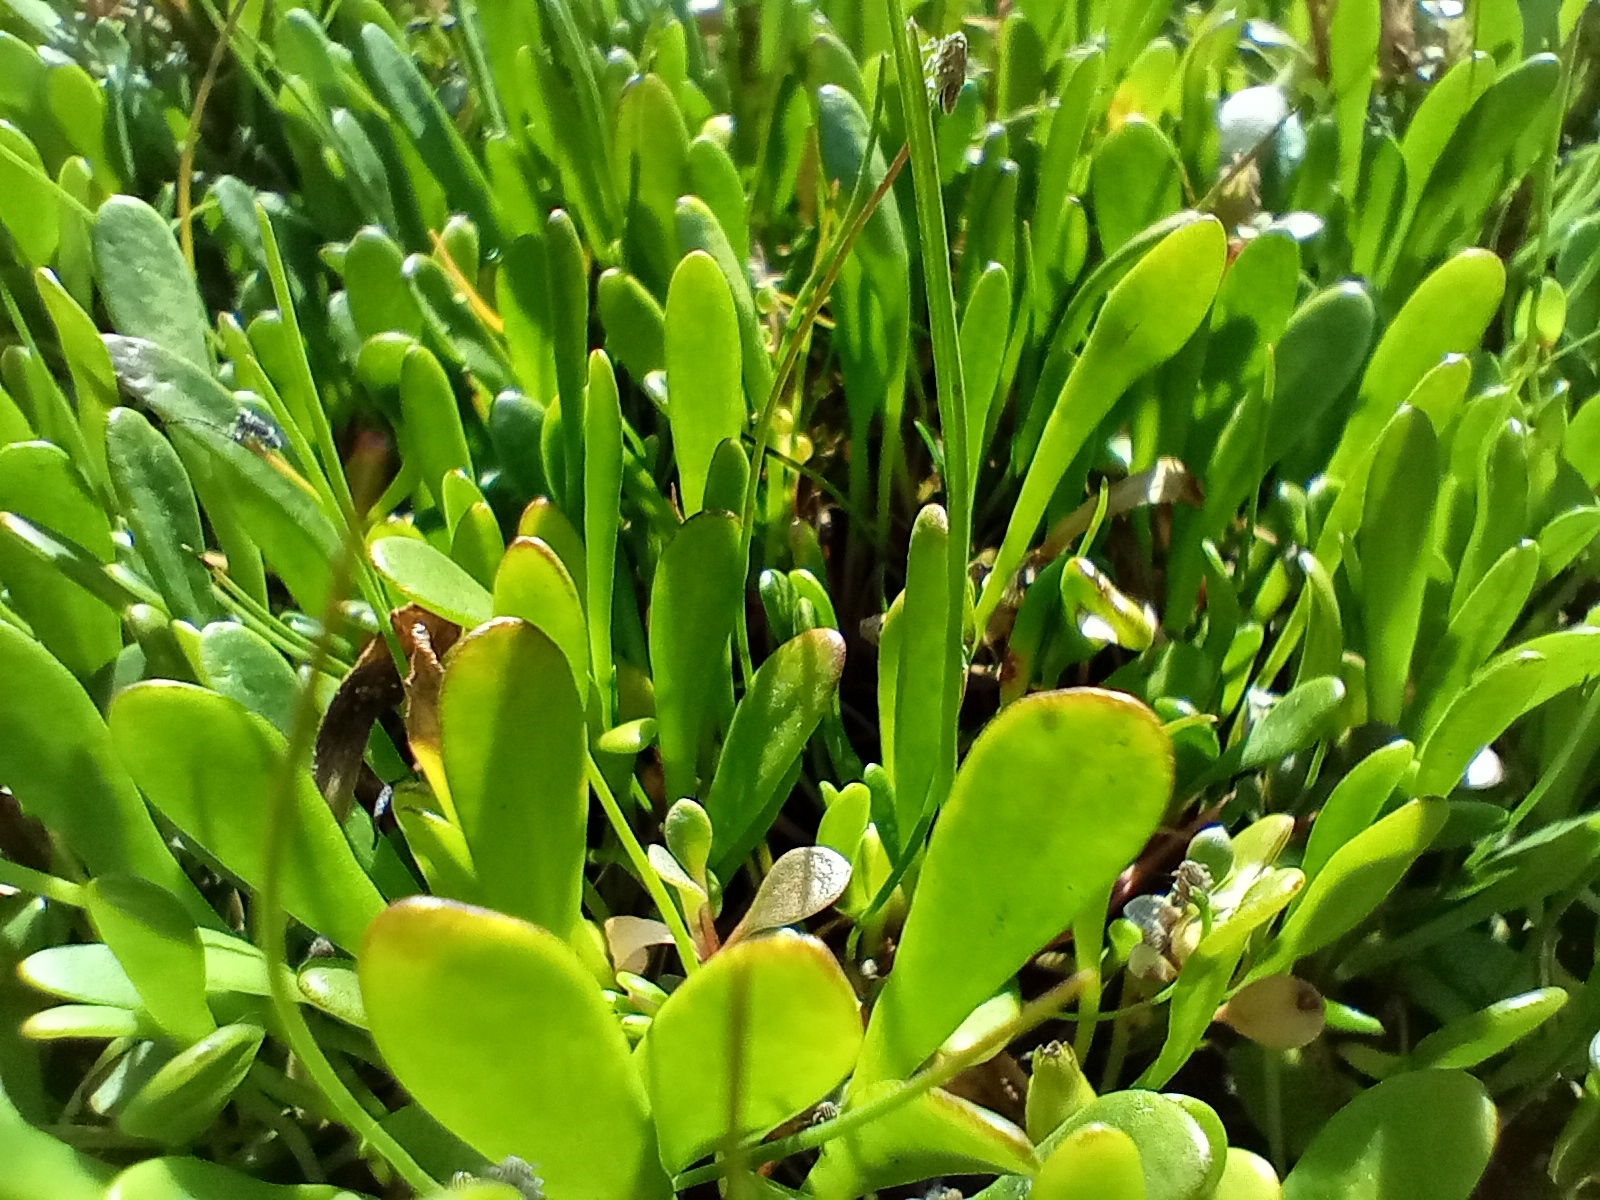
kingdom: Plantae
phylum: Tracheophyta
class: Magnoliopsida
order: Asterales
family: Goodeniaceae
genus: Goodenia
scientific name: Goodenia radicans
